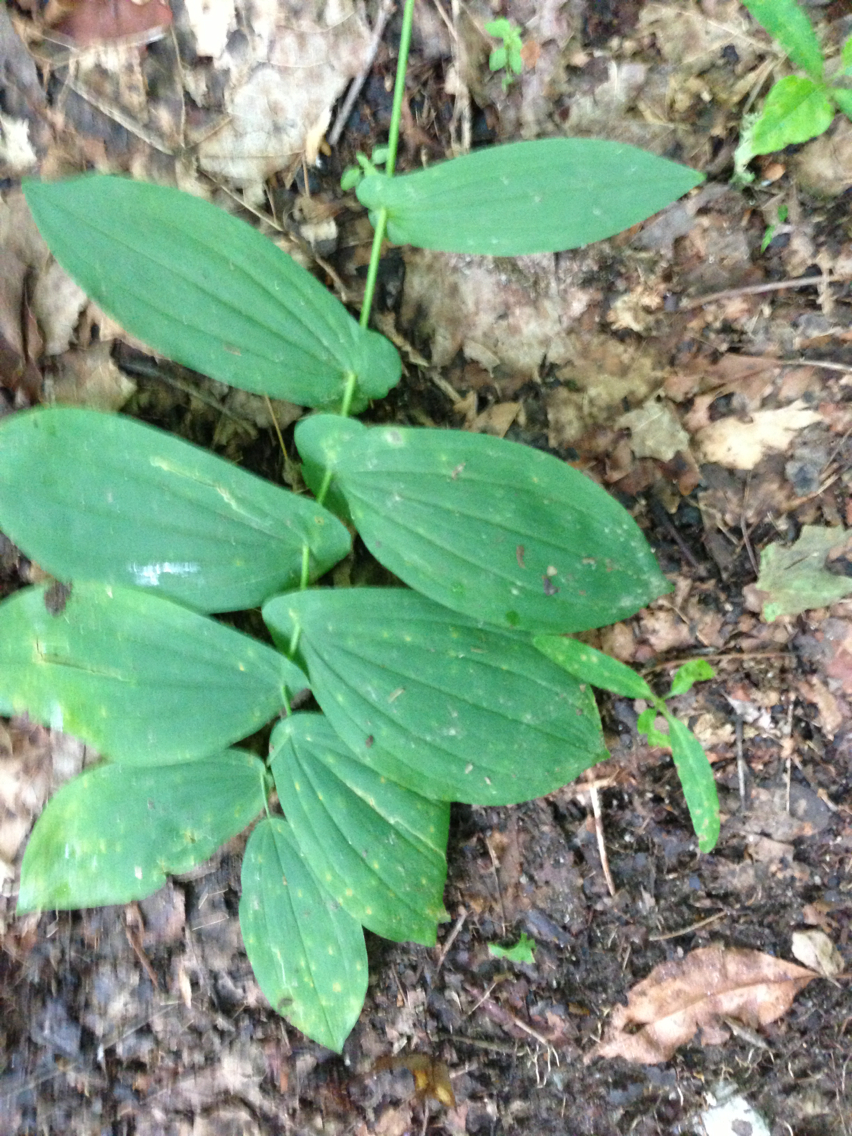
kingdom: Plantae
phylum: Tracheophyta
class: Liliopsida
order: Liliales
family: Colchicaceae
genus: Uvularia
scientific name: Uvularia grandiflora
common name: Bellwort
